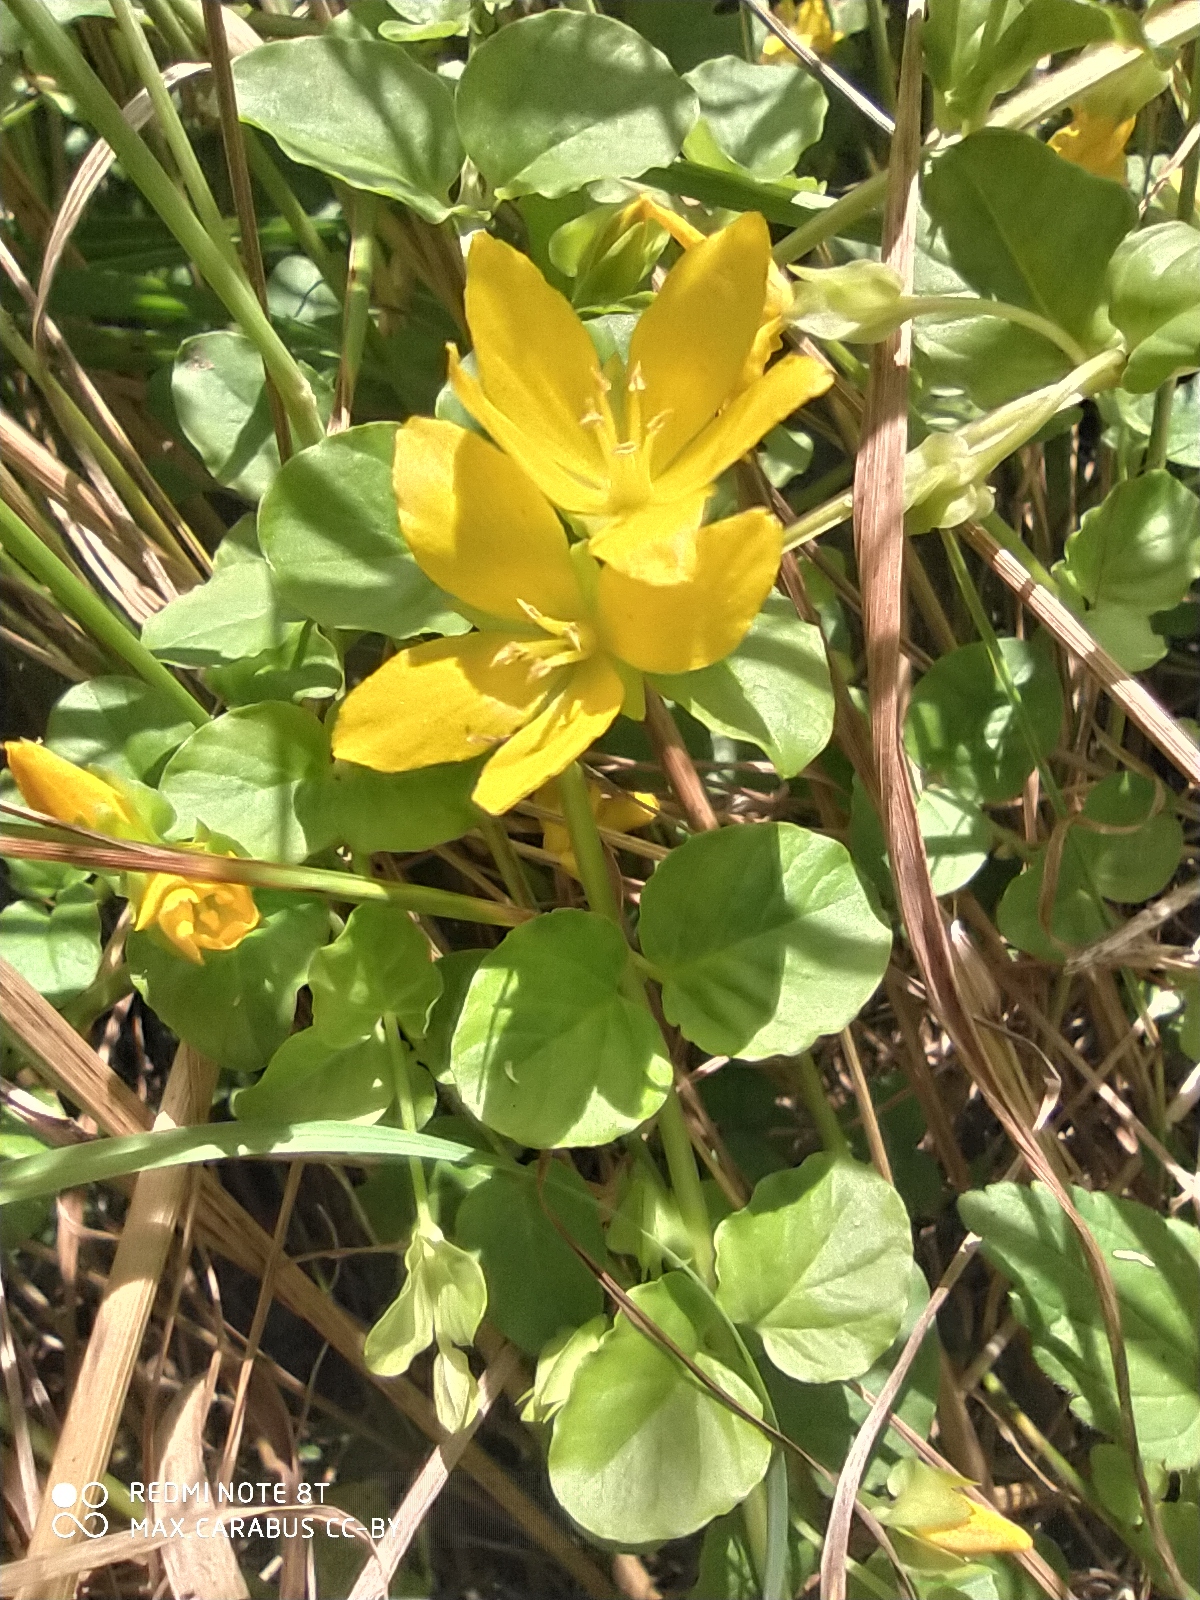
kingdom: Plantae
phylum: Tracheophyta
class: Magnoliopsida
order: Ericales
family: Primulaceae
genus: Lysimachia
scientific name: Lysimachia nummularia
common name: Moneywort
